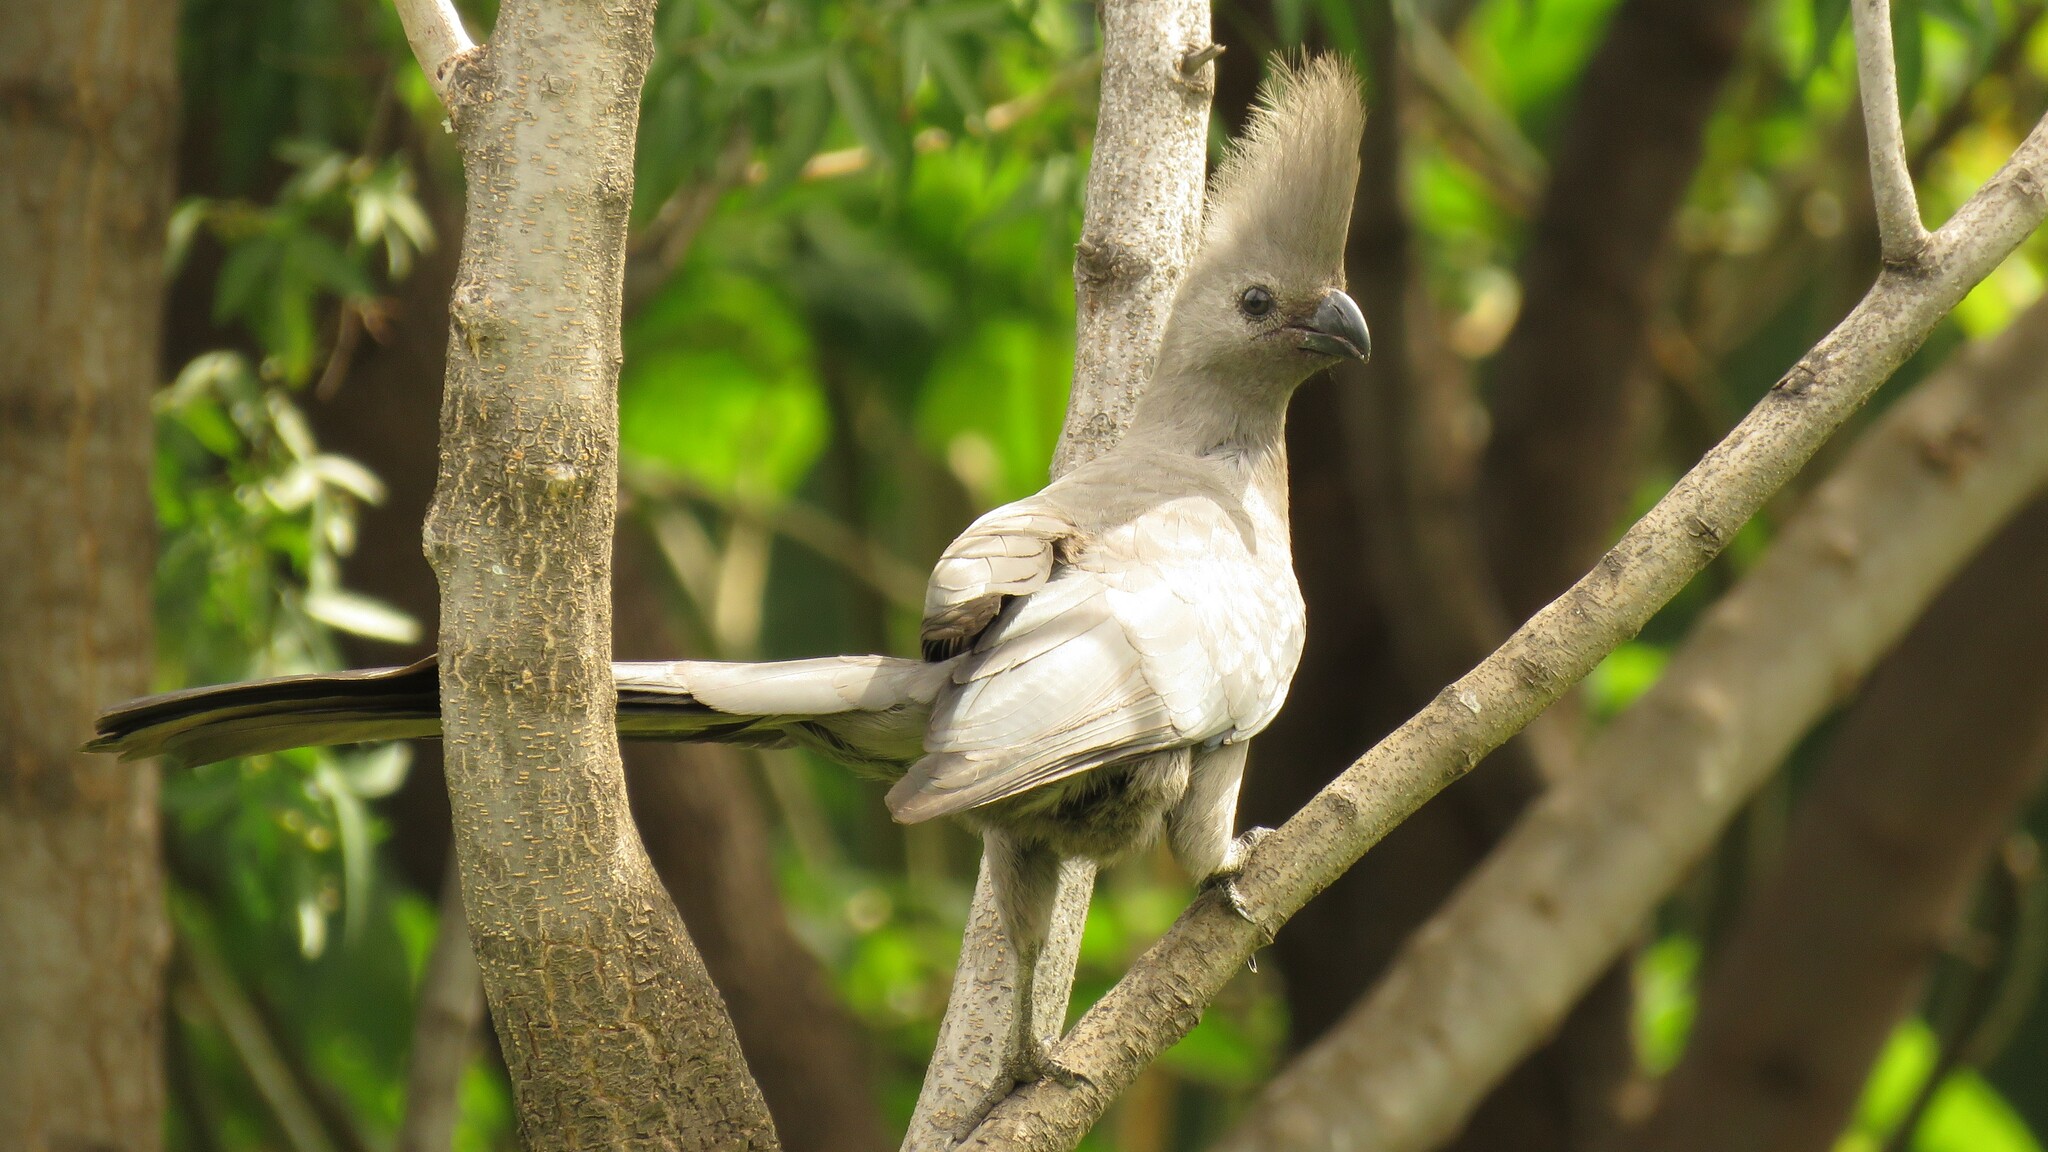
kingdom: Animalia
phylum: Chordata
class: Aves
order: Musophagiformes
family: Musophagidae
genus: Corythaixoides
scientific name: Corythaixoides concolor
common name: Grey go-away-bird
